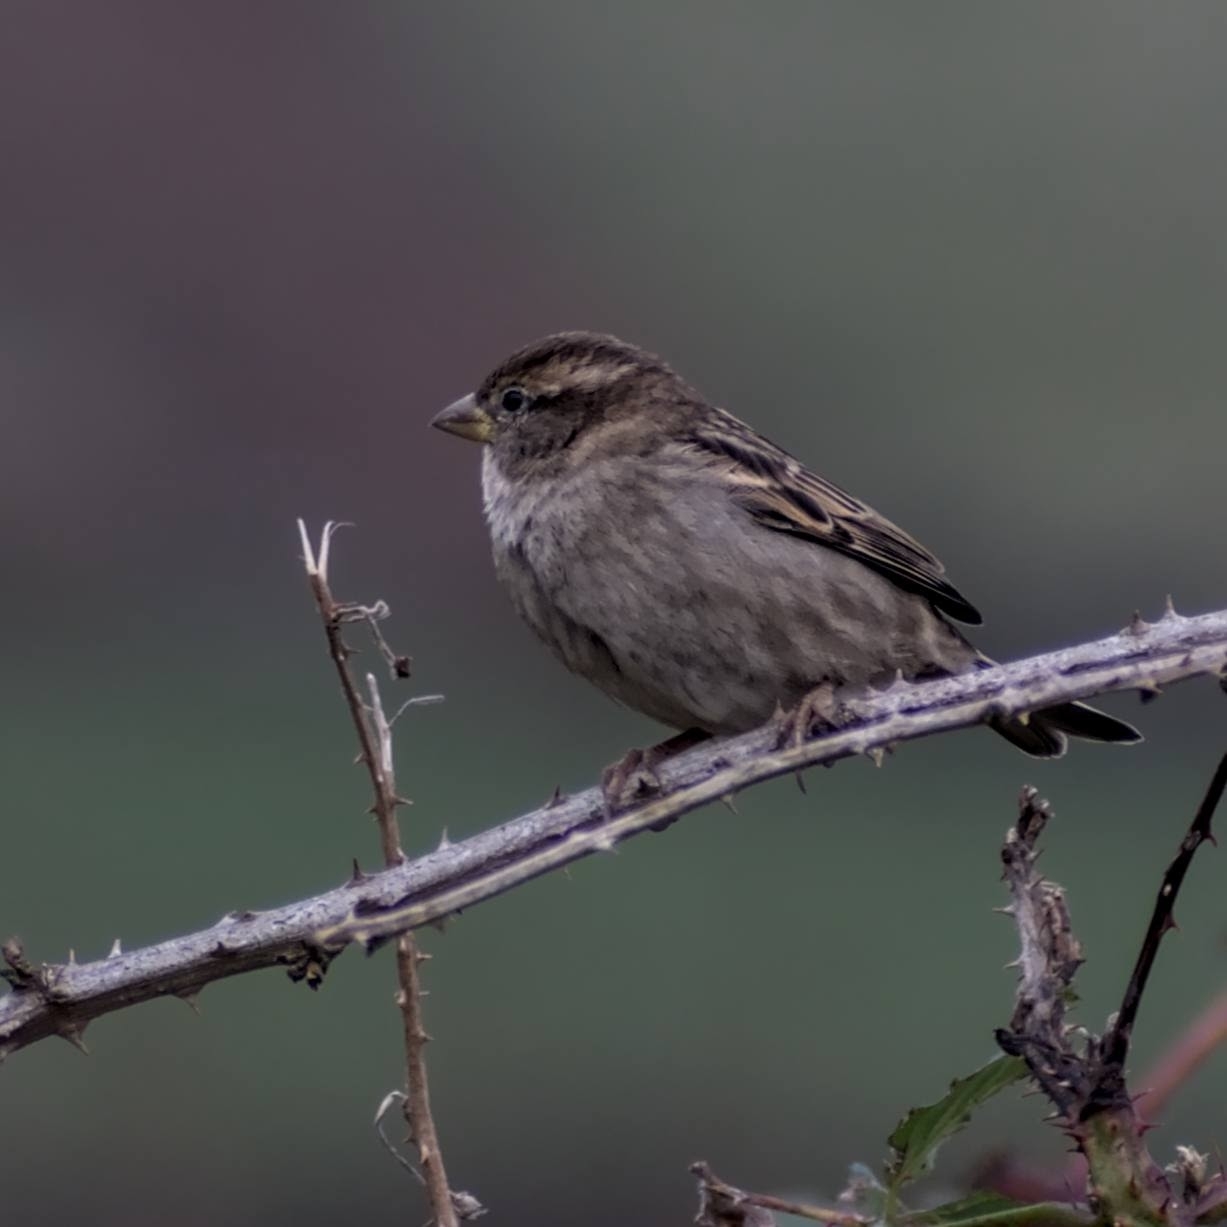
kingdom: Animalia
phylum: Chordata
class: Aves
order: Passeriformes
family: Passeridae
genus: Passer
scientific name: Passer domesticus
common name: House sparrow
